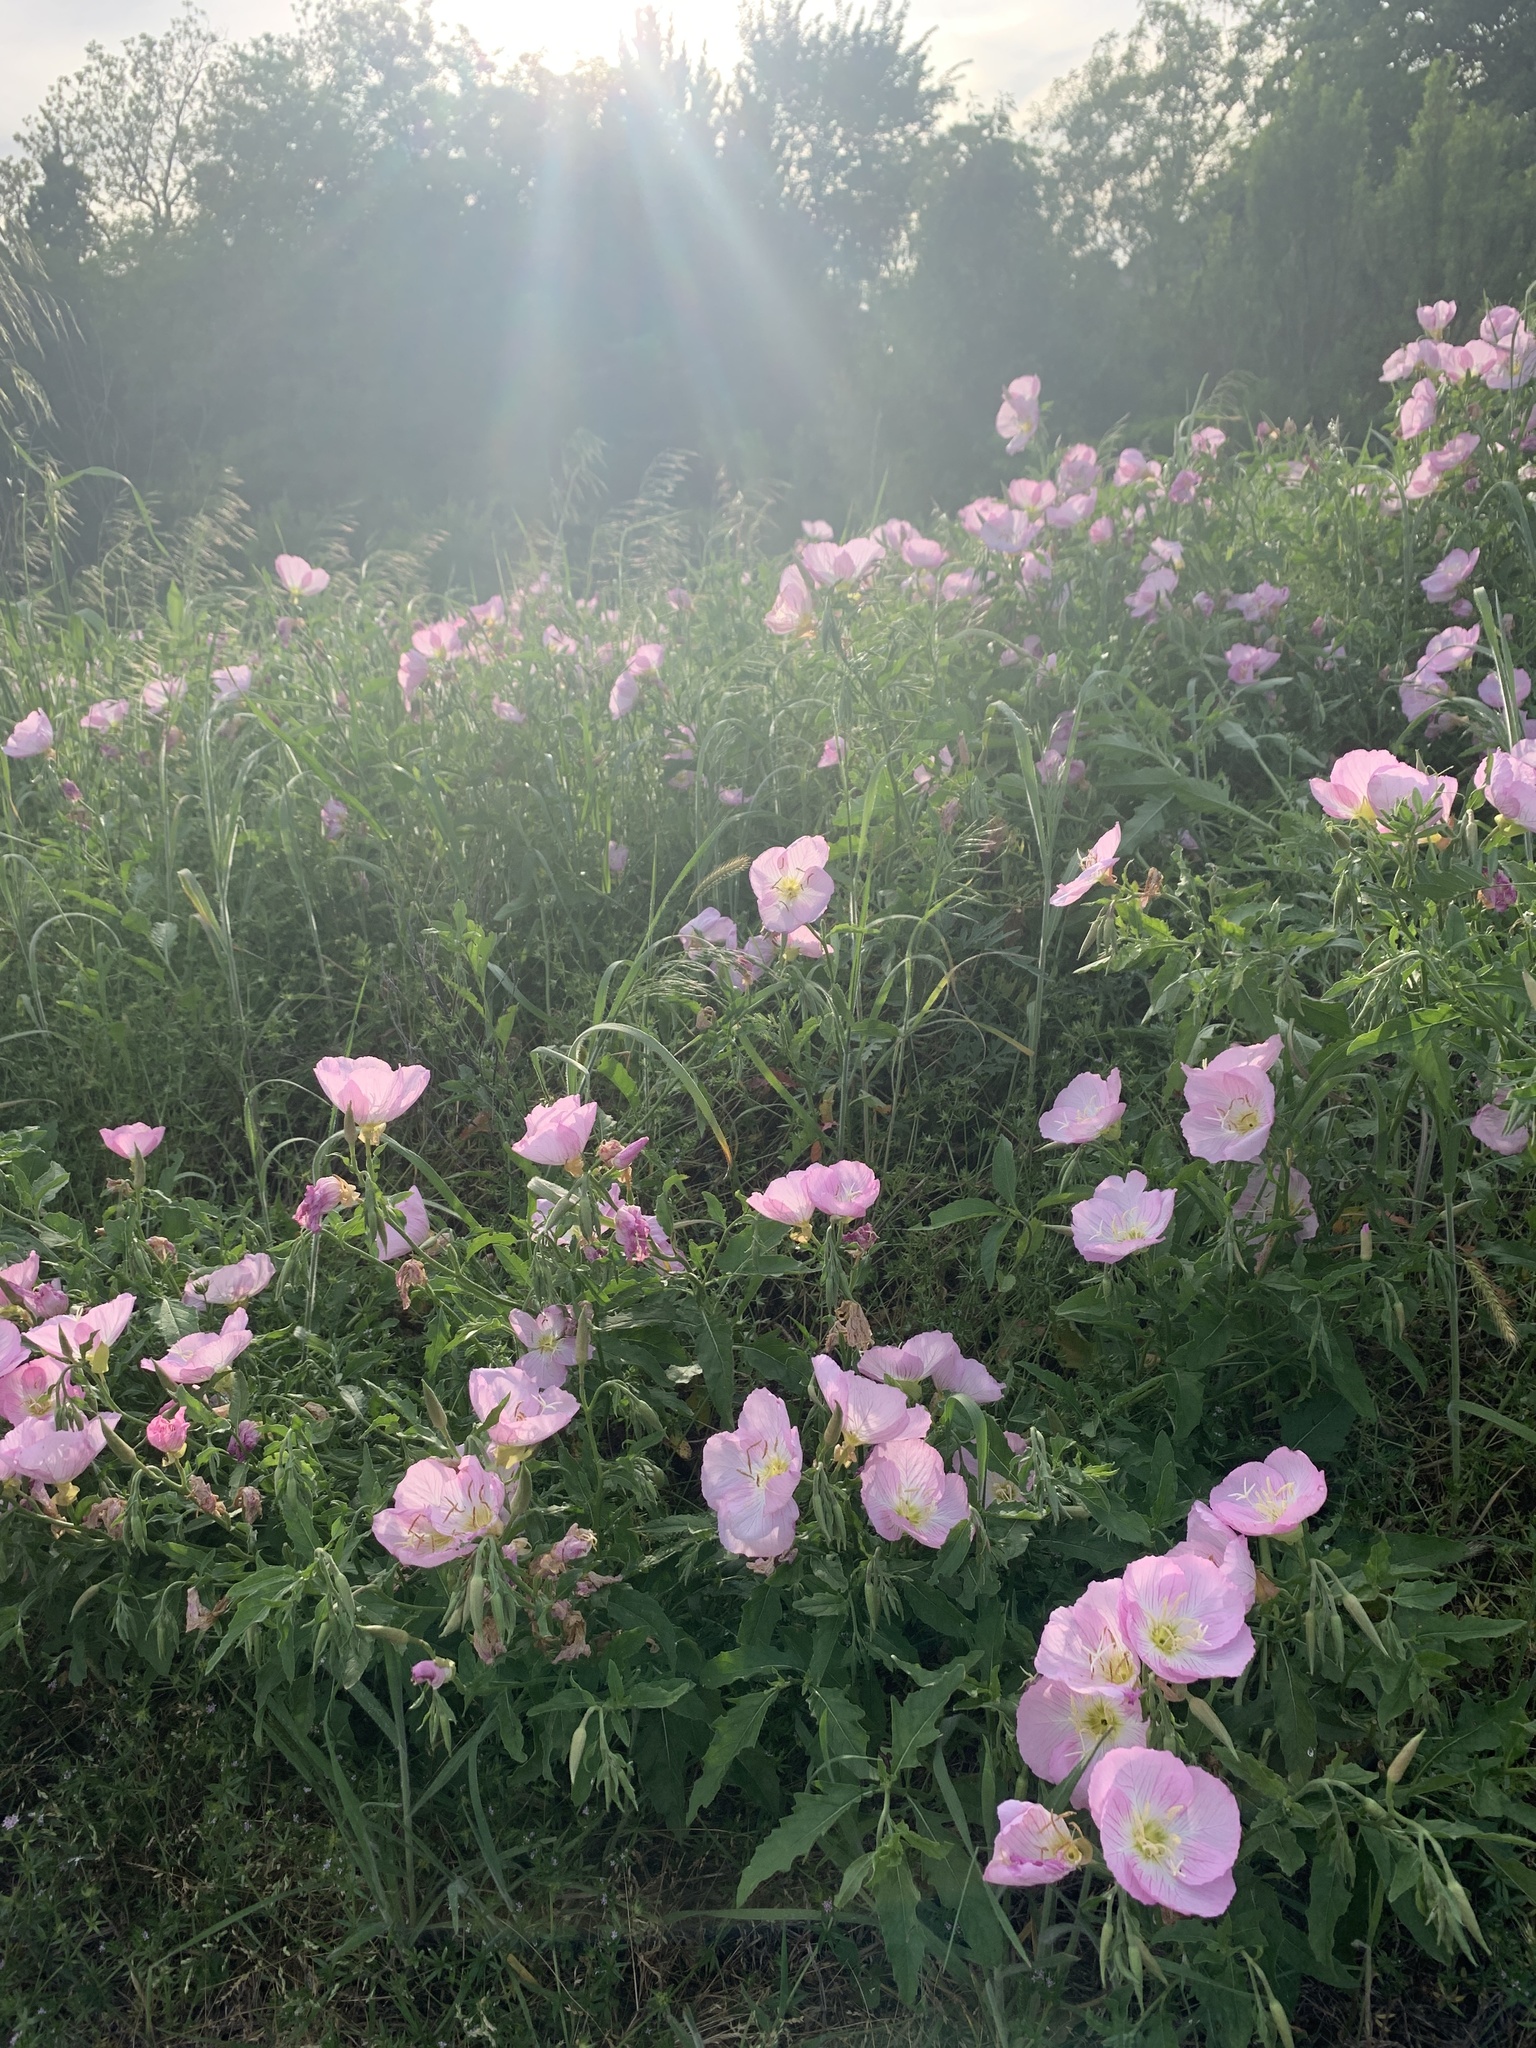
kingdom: Plantae
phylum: Tracheophyta
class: Magnoliopsida
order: Myrtales
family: Onagraceae
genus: Oenothera
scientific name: Oenothera speciosa
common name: White evening-primrose
